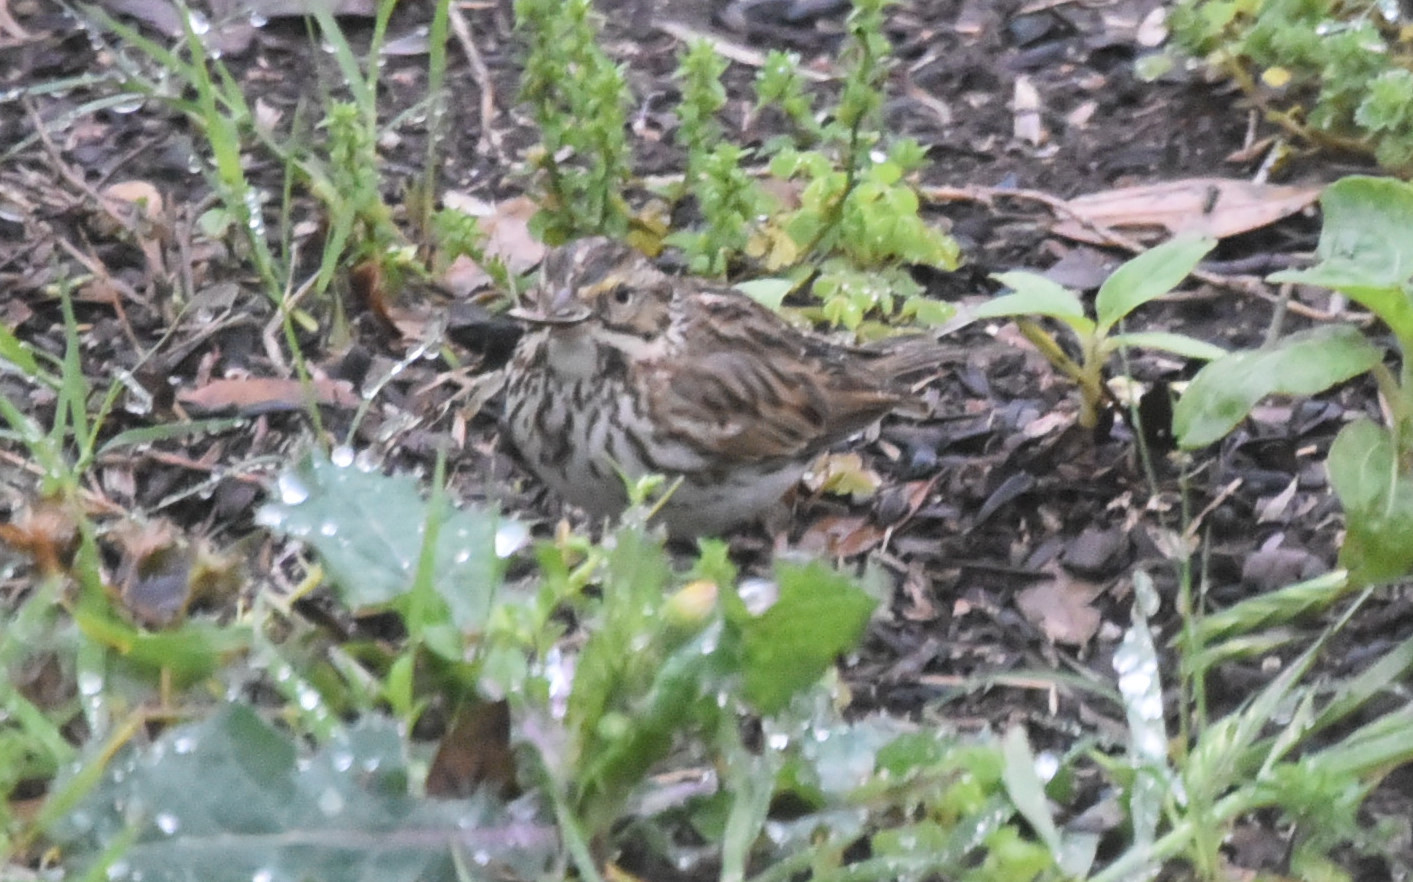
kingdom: Animalia
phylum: Chordata
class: Aves
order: Passeriformes
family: Passerellidae
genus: Passerculus
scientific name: Passerculus sandwichensis
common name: Savannah sparrow
